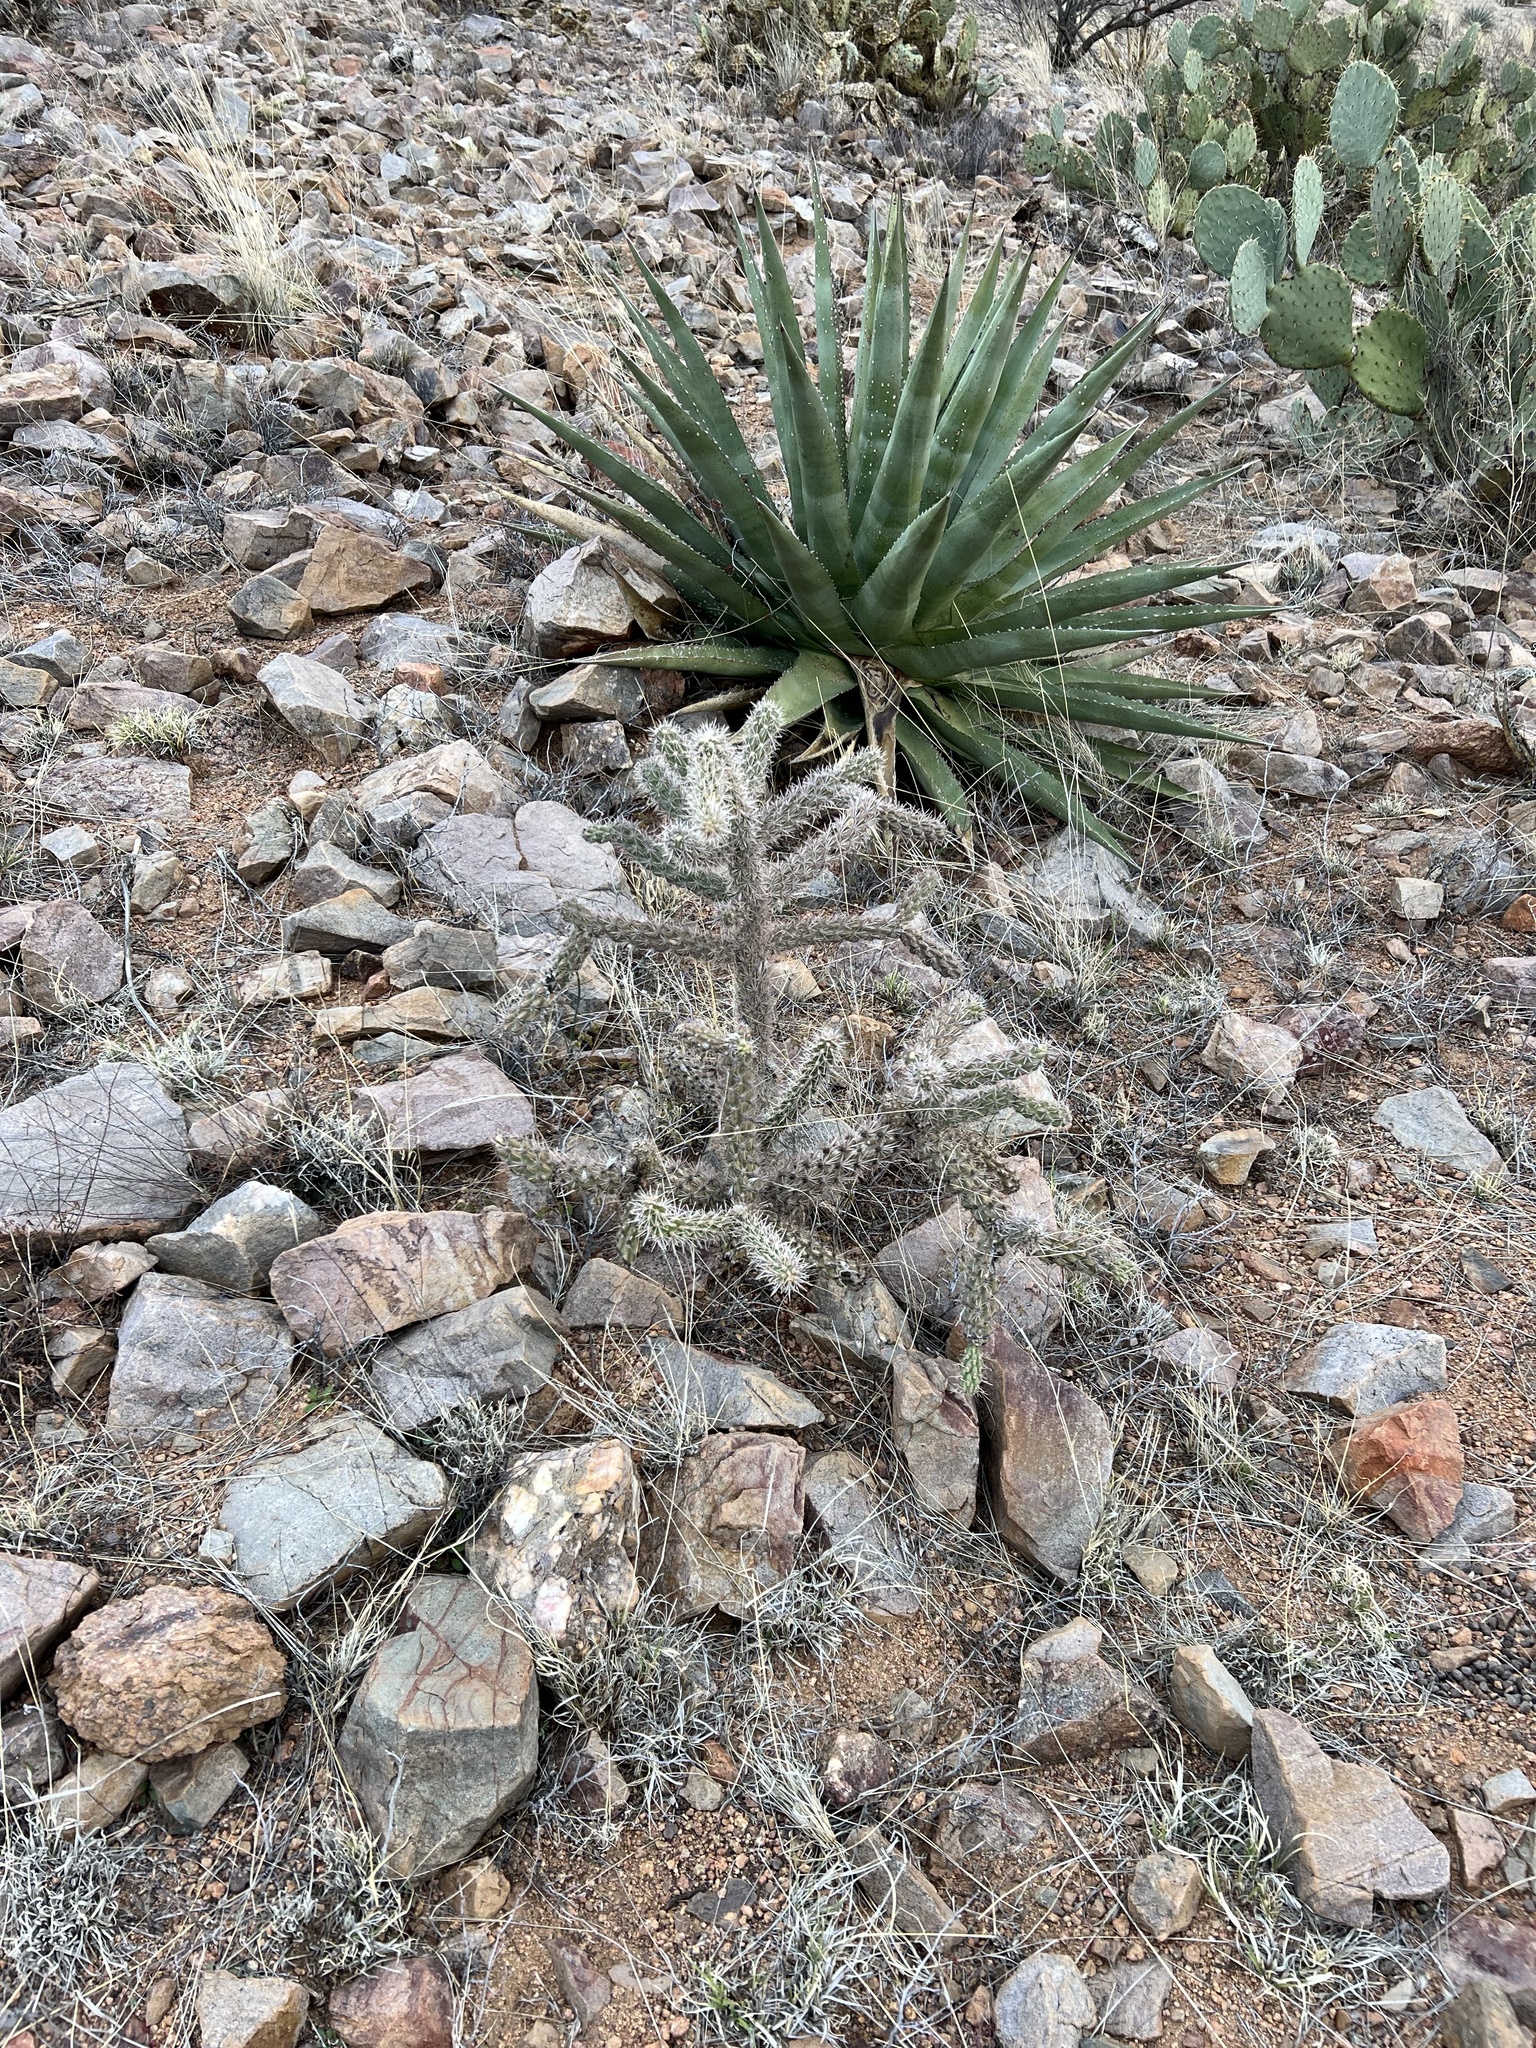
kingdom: Plantae
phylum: Tracheophyta
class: Magnoliopsida
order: Caryophyllales
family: Cactaceae
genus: Cylindropuntia
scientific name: Cylindropuntia imbricata
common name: Candelabrum cactus
